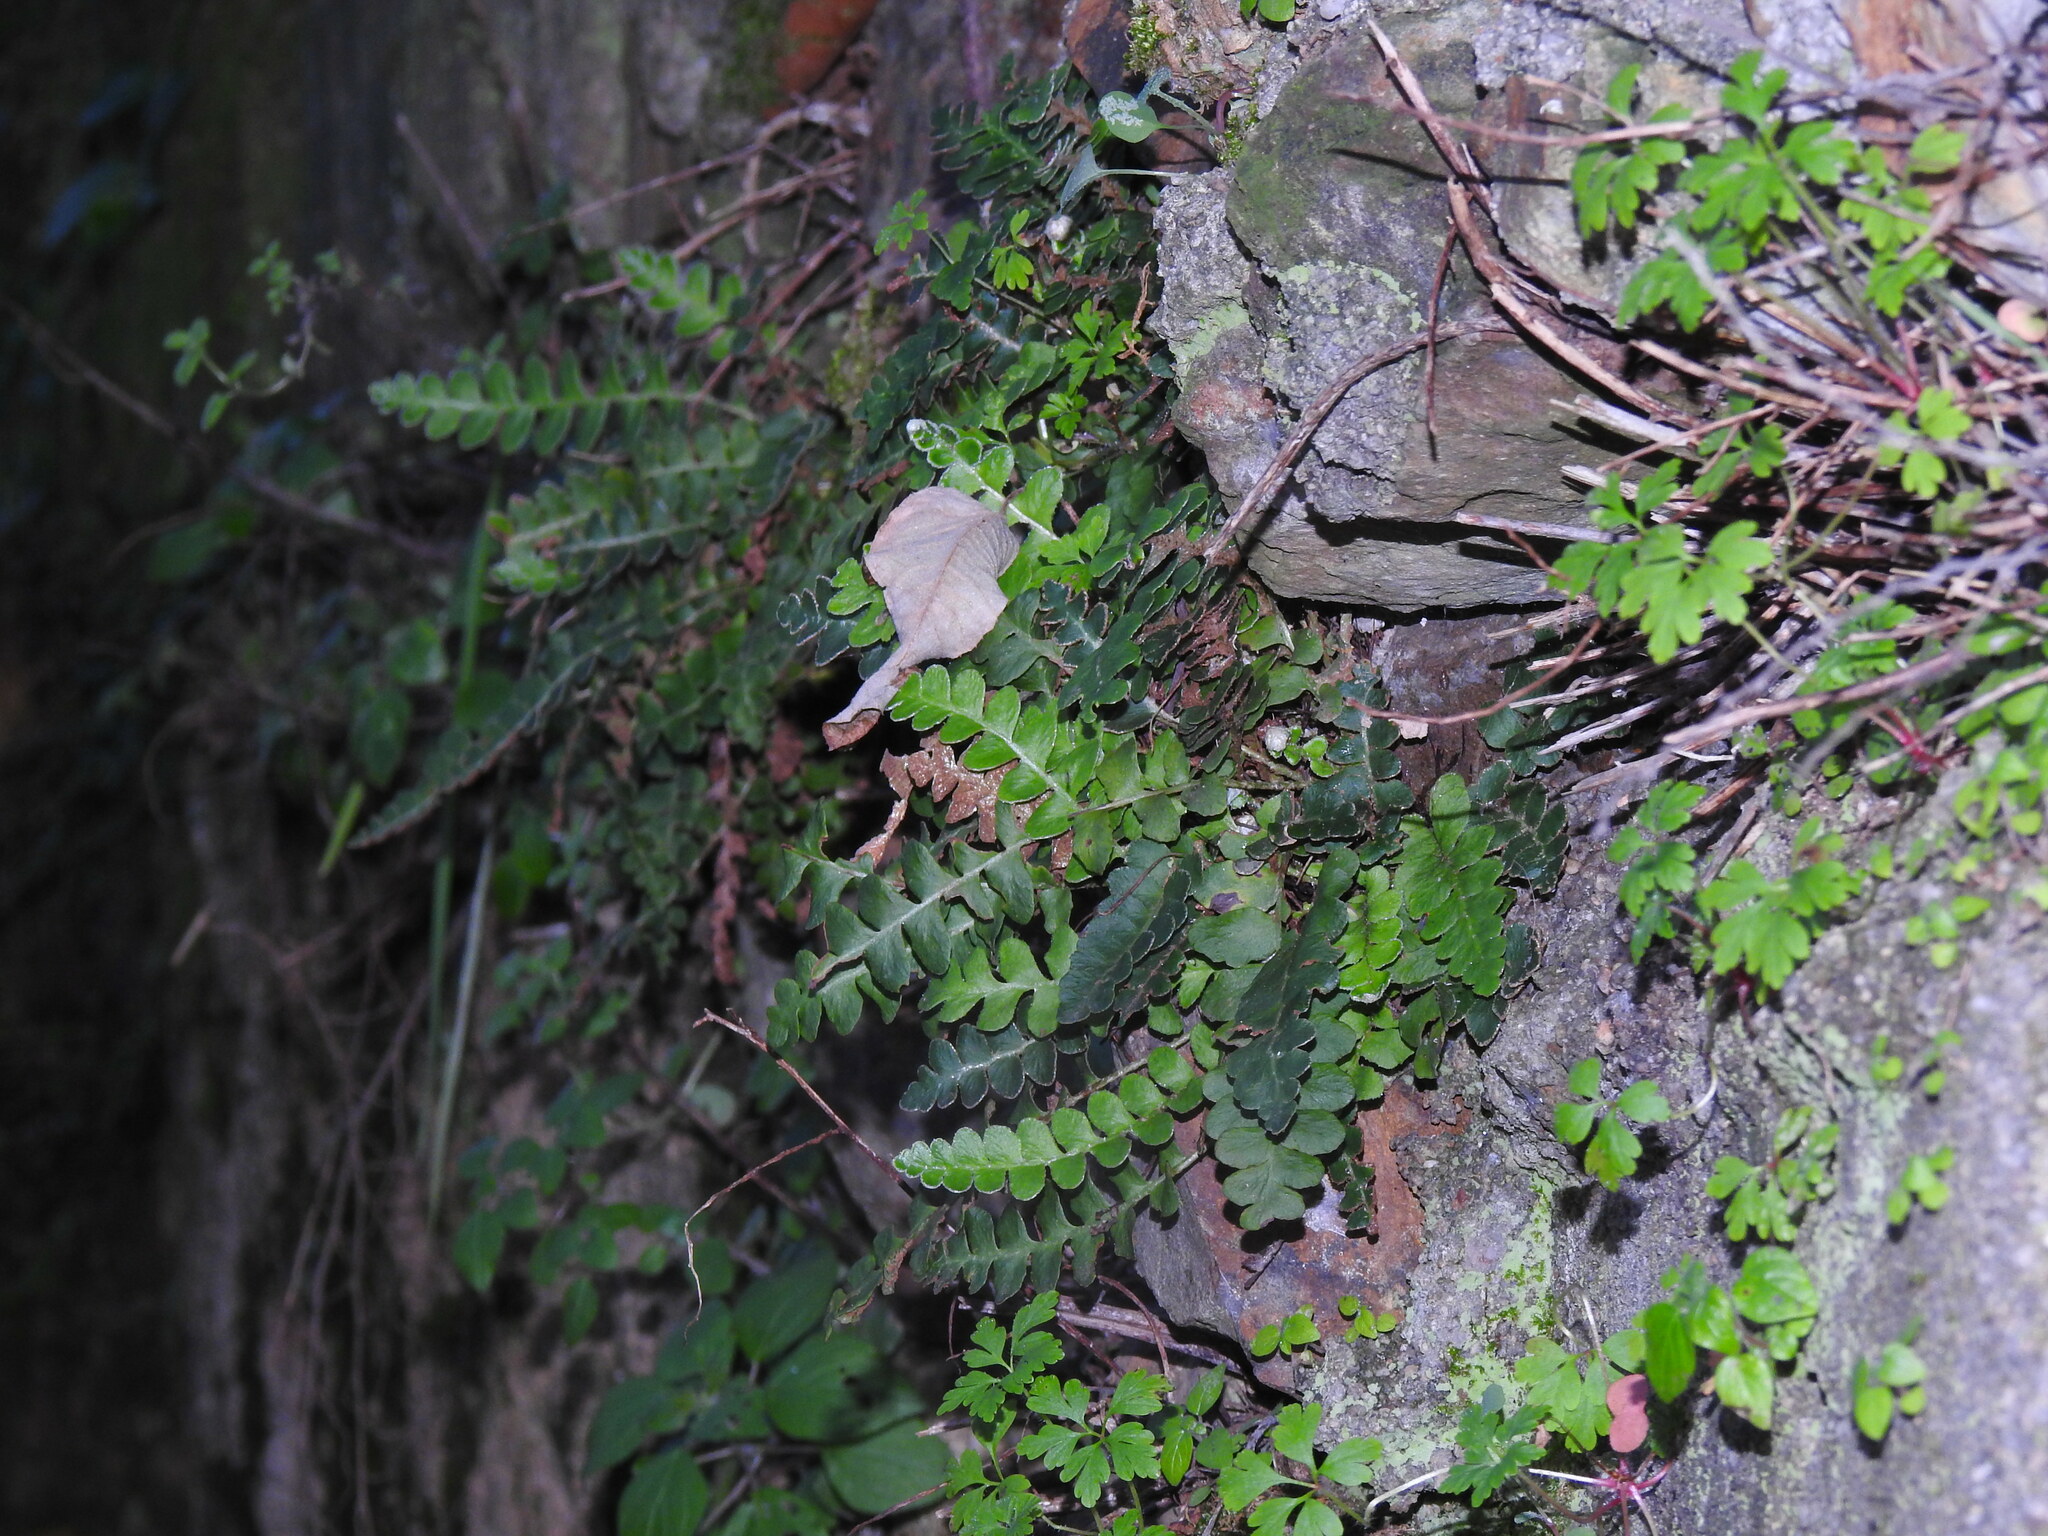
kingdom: Plantae
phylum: Tracheophyta
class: Polypodiopsida
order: Polypodiales
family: Aspleniaceae
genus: Asplenium
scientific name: Asplenium ceterach
